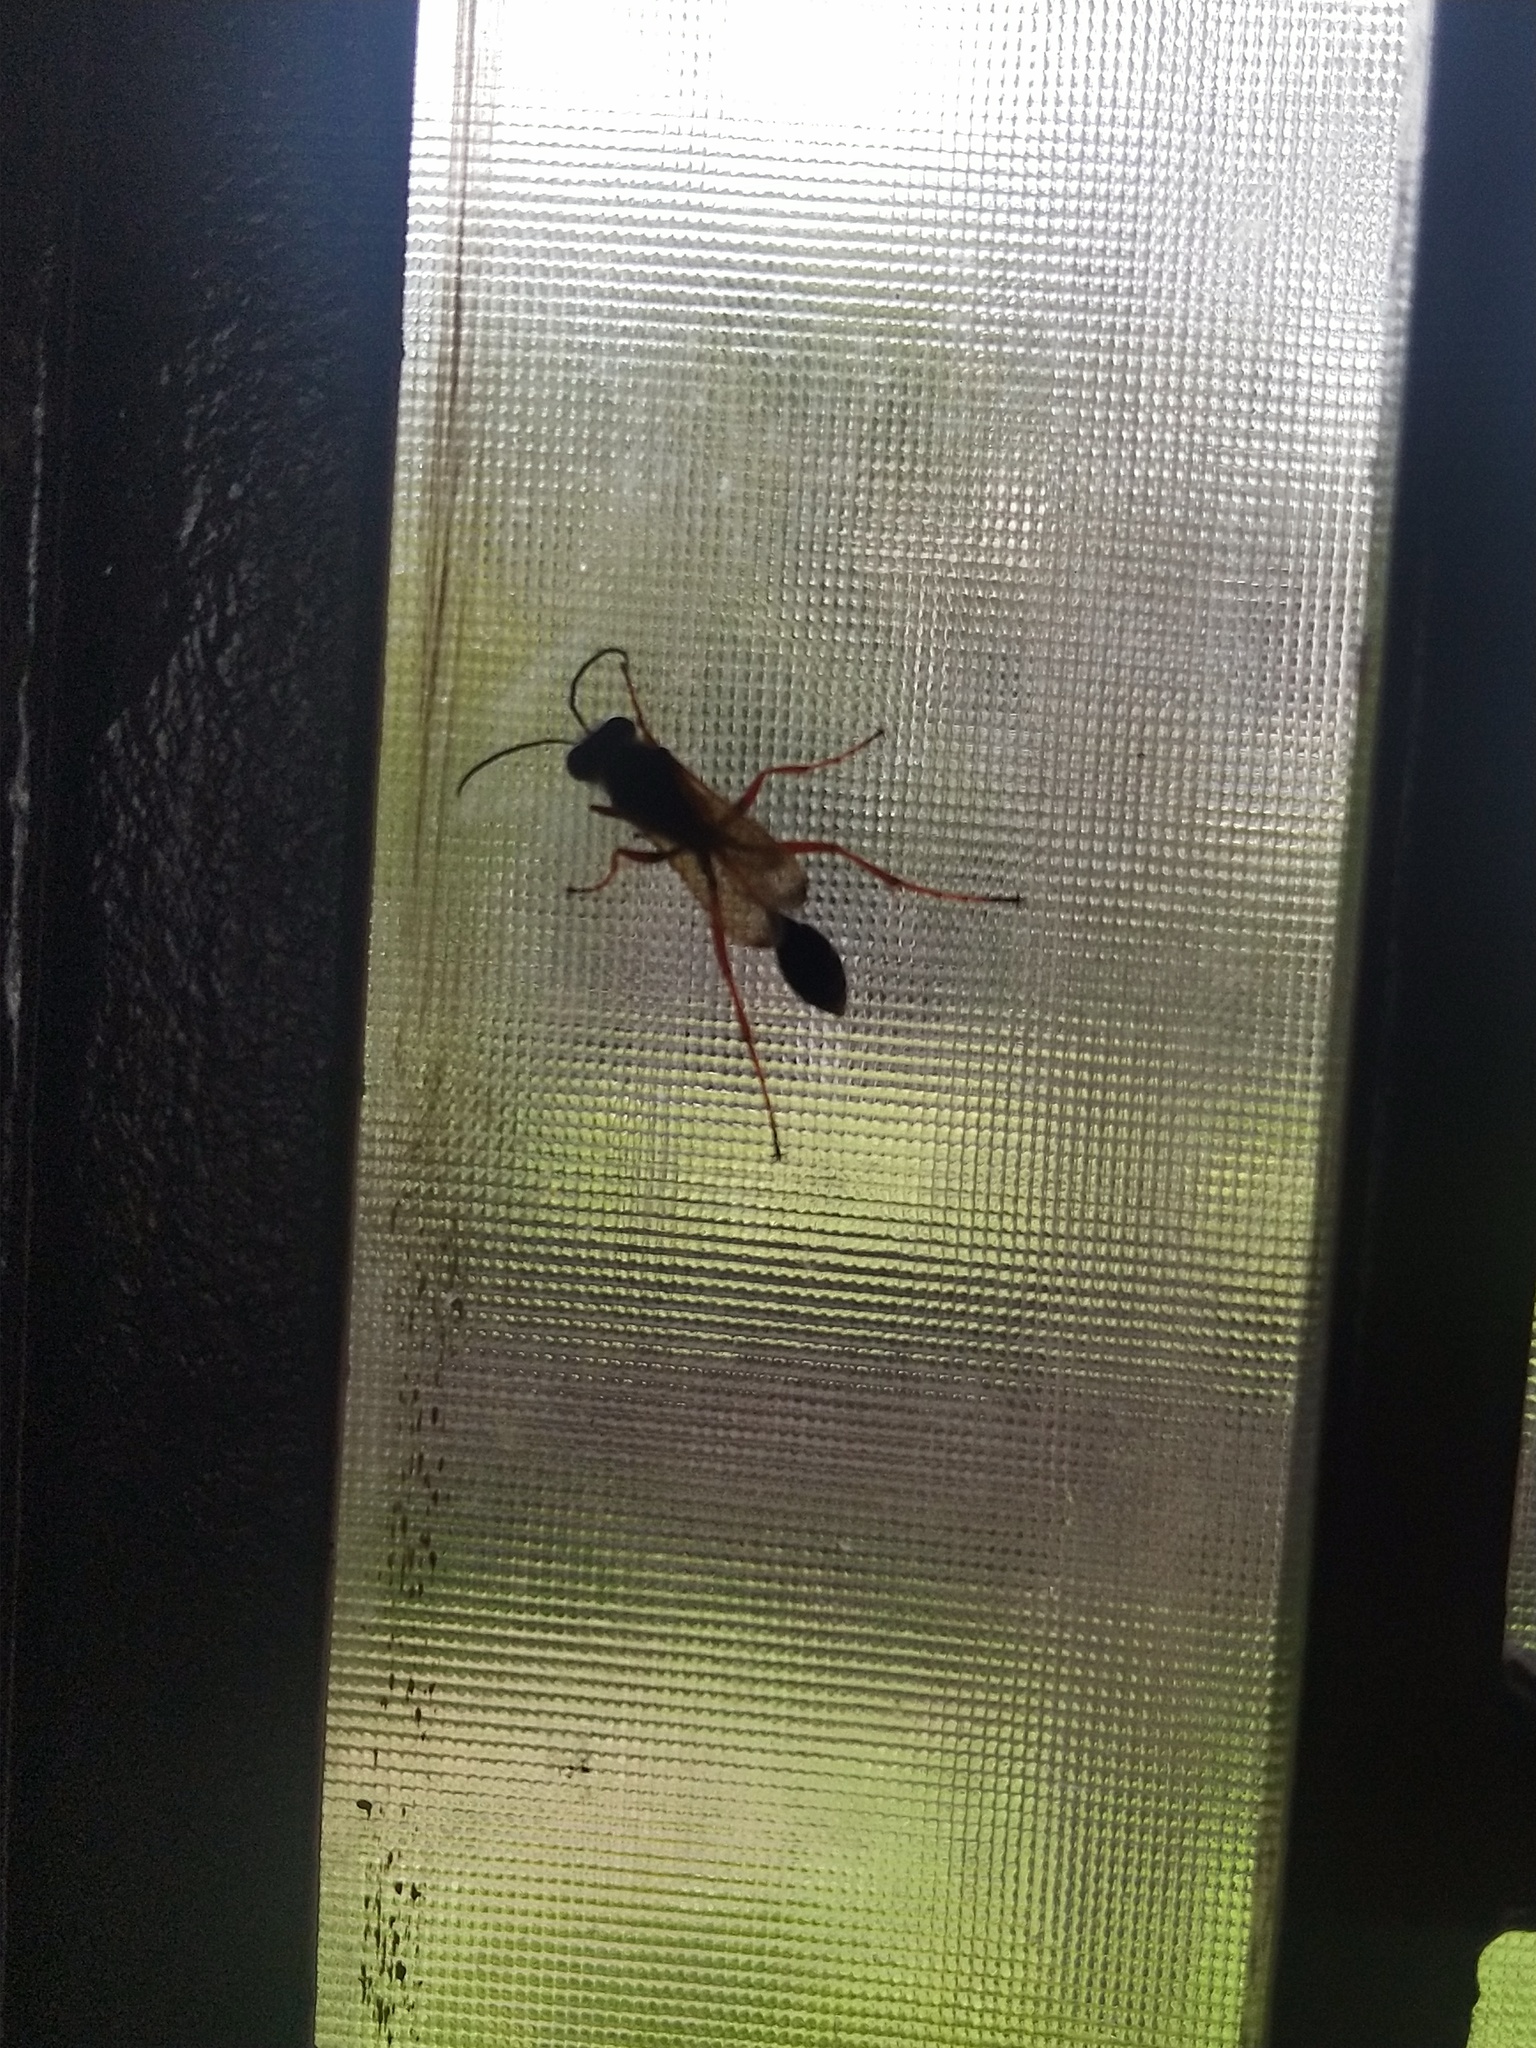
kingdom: Animalia
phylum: Arthropoda
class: Insecta
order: Hymenoptera
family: Sphecidae
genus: Sceliphron
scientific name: Sceliphron coromandelicum
